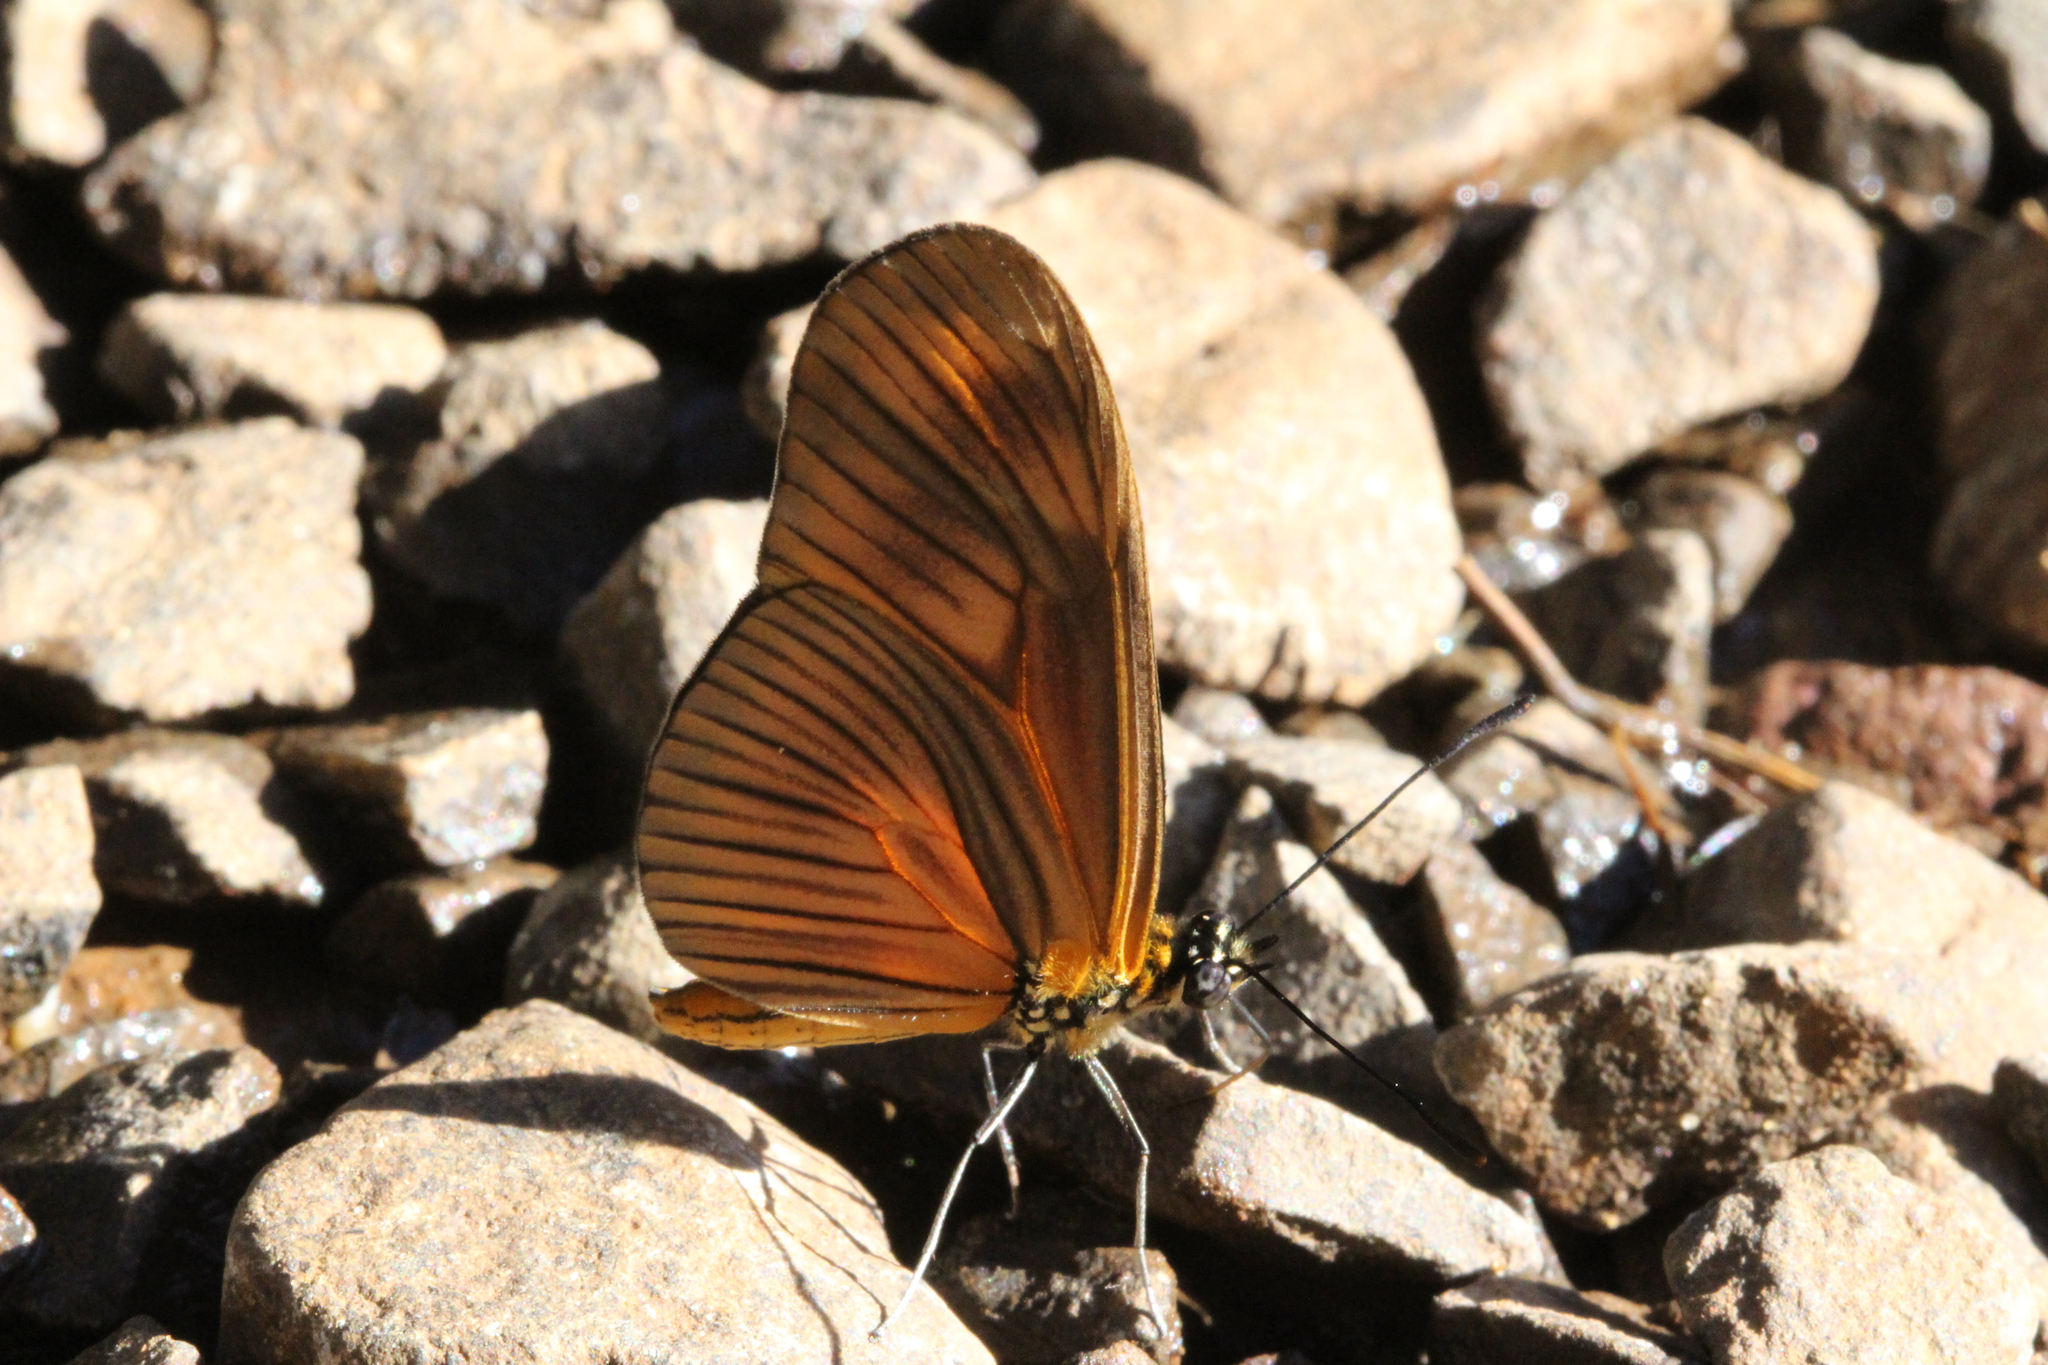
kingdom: Animalia
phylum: Arthropoda
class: Insecta
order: Lepidoptera
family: Nymphalidae
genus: Heliconius
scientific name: Heliconius aliphera
